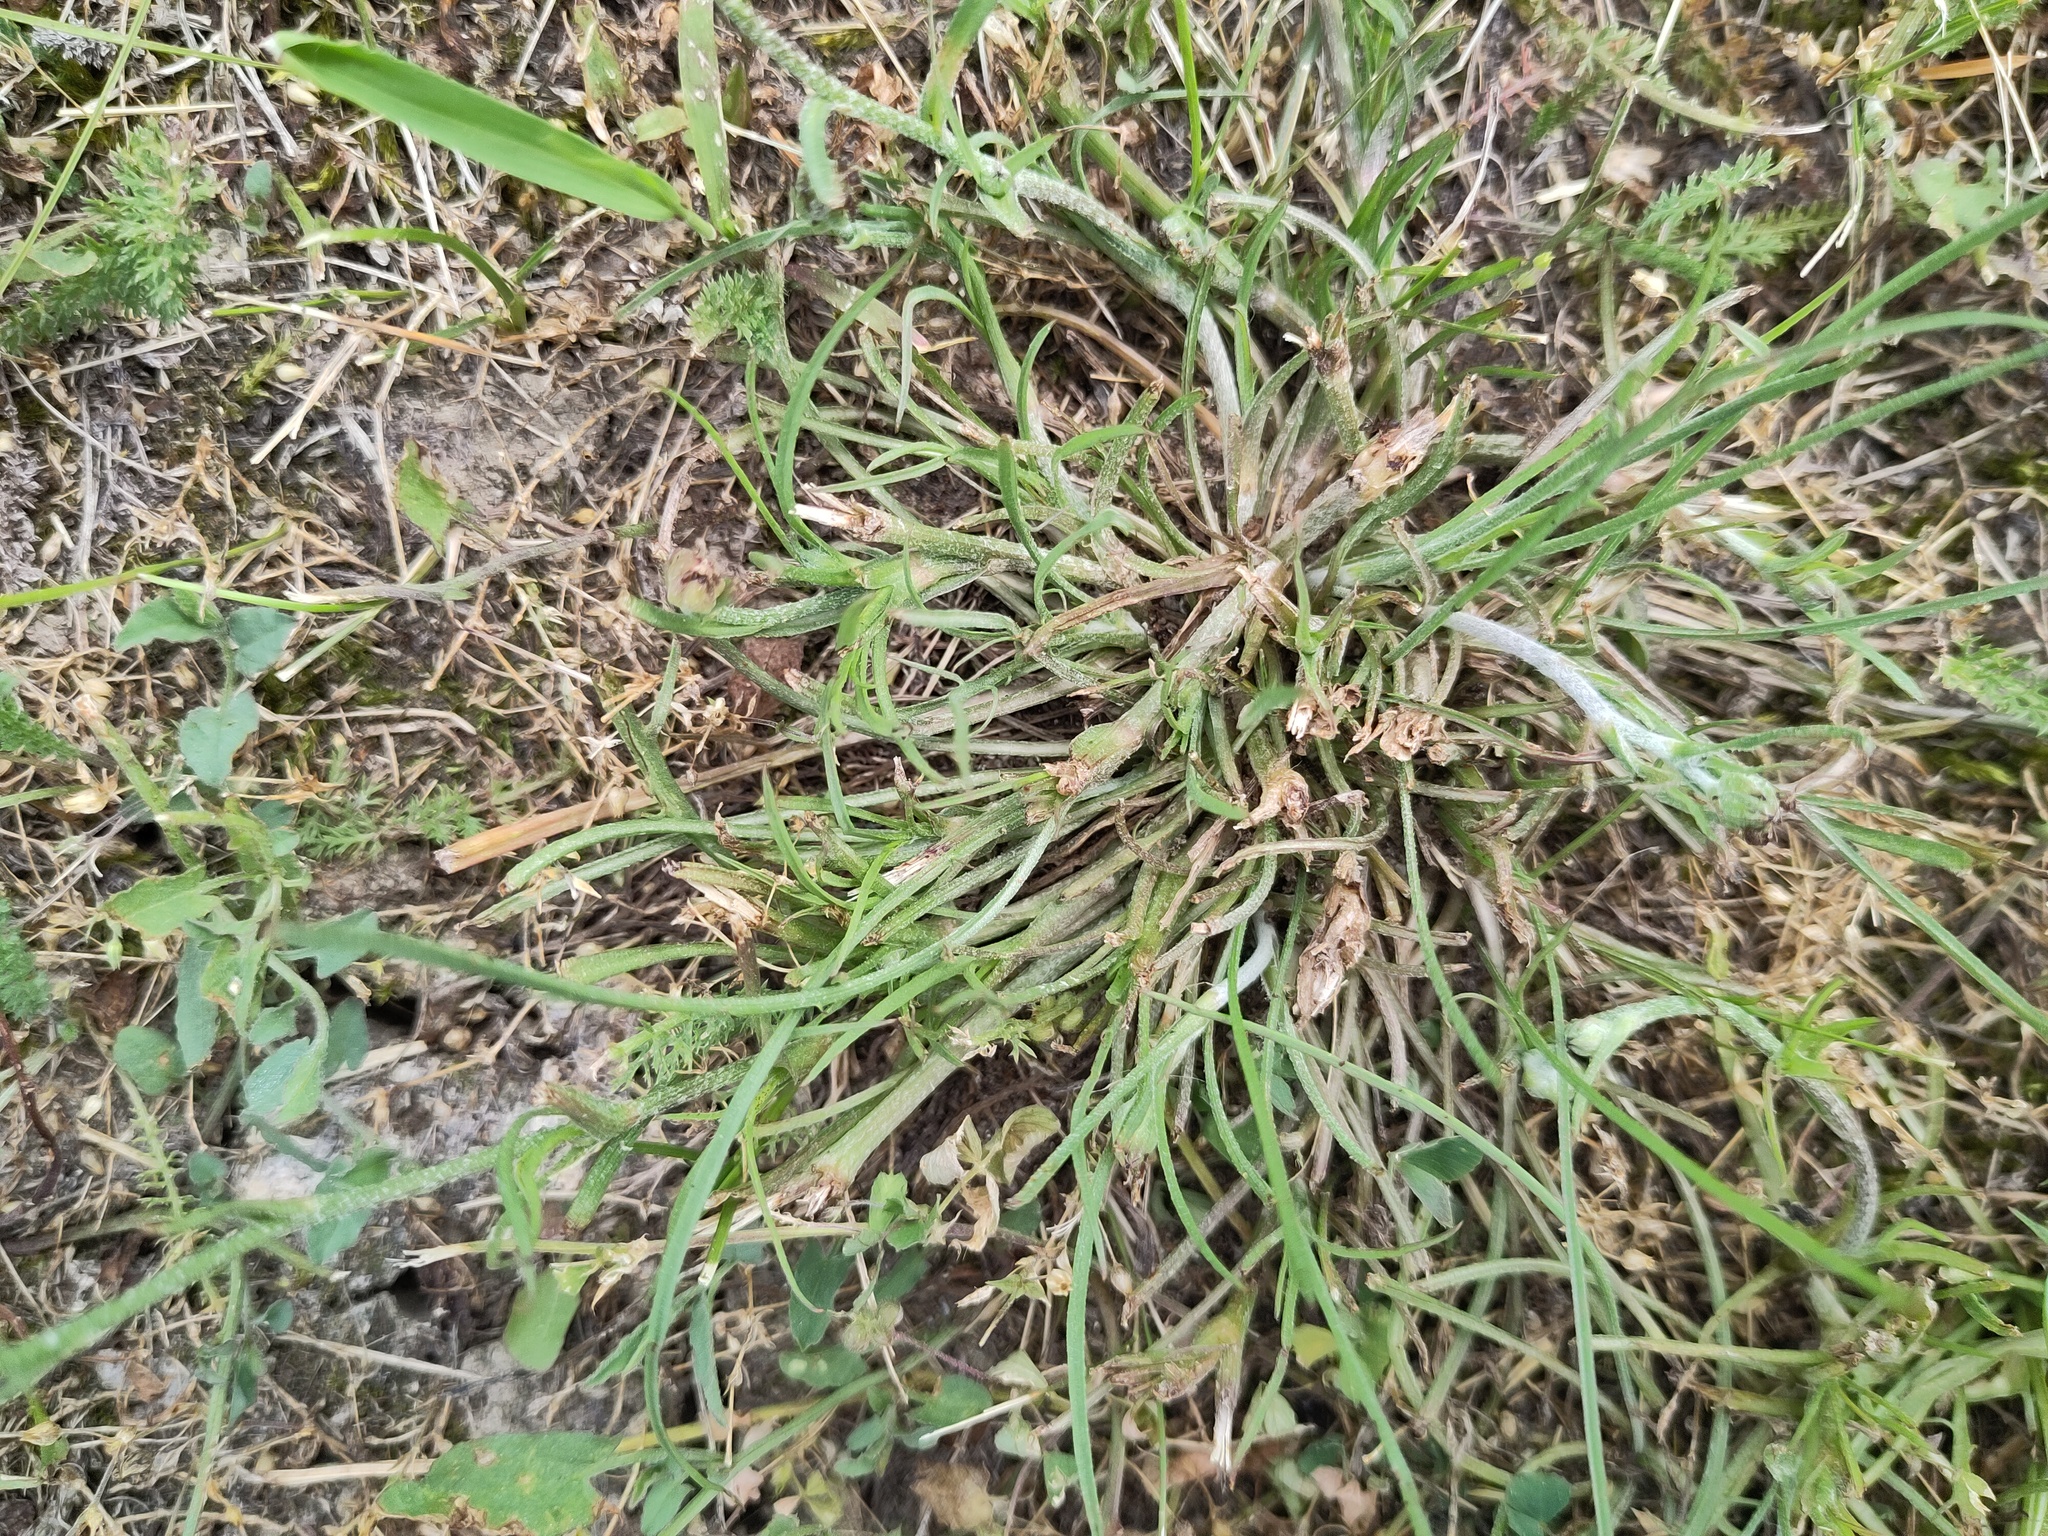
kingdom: Plantae
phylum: Tracheophyta
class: Magnoliopsida
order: Asterales
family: Asteraceae
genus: Scorzonera
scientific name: Scorzonera cana
